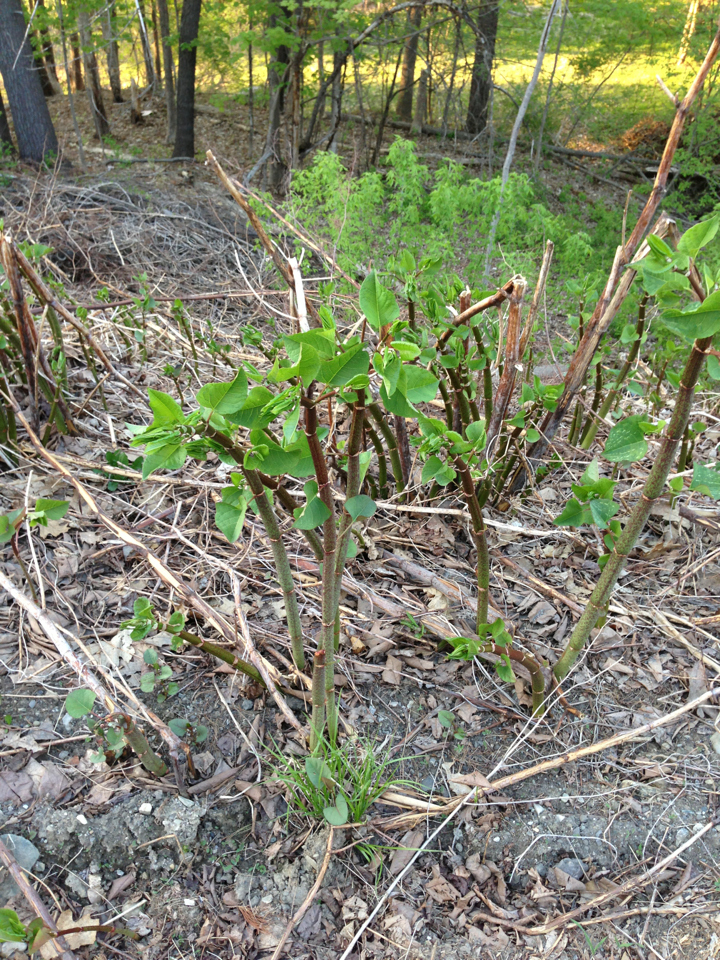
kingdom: Plantae
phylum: Tracheophyta
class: Magnoliopsida
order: Caryophyllales
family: Polygonaceae
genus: Reynoutria
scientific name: Reynoutria japonica
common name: Japanese knotweed
